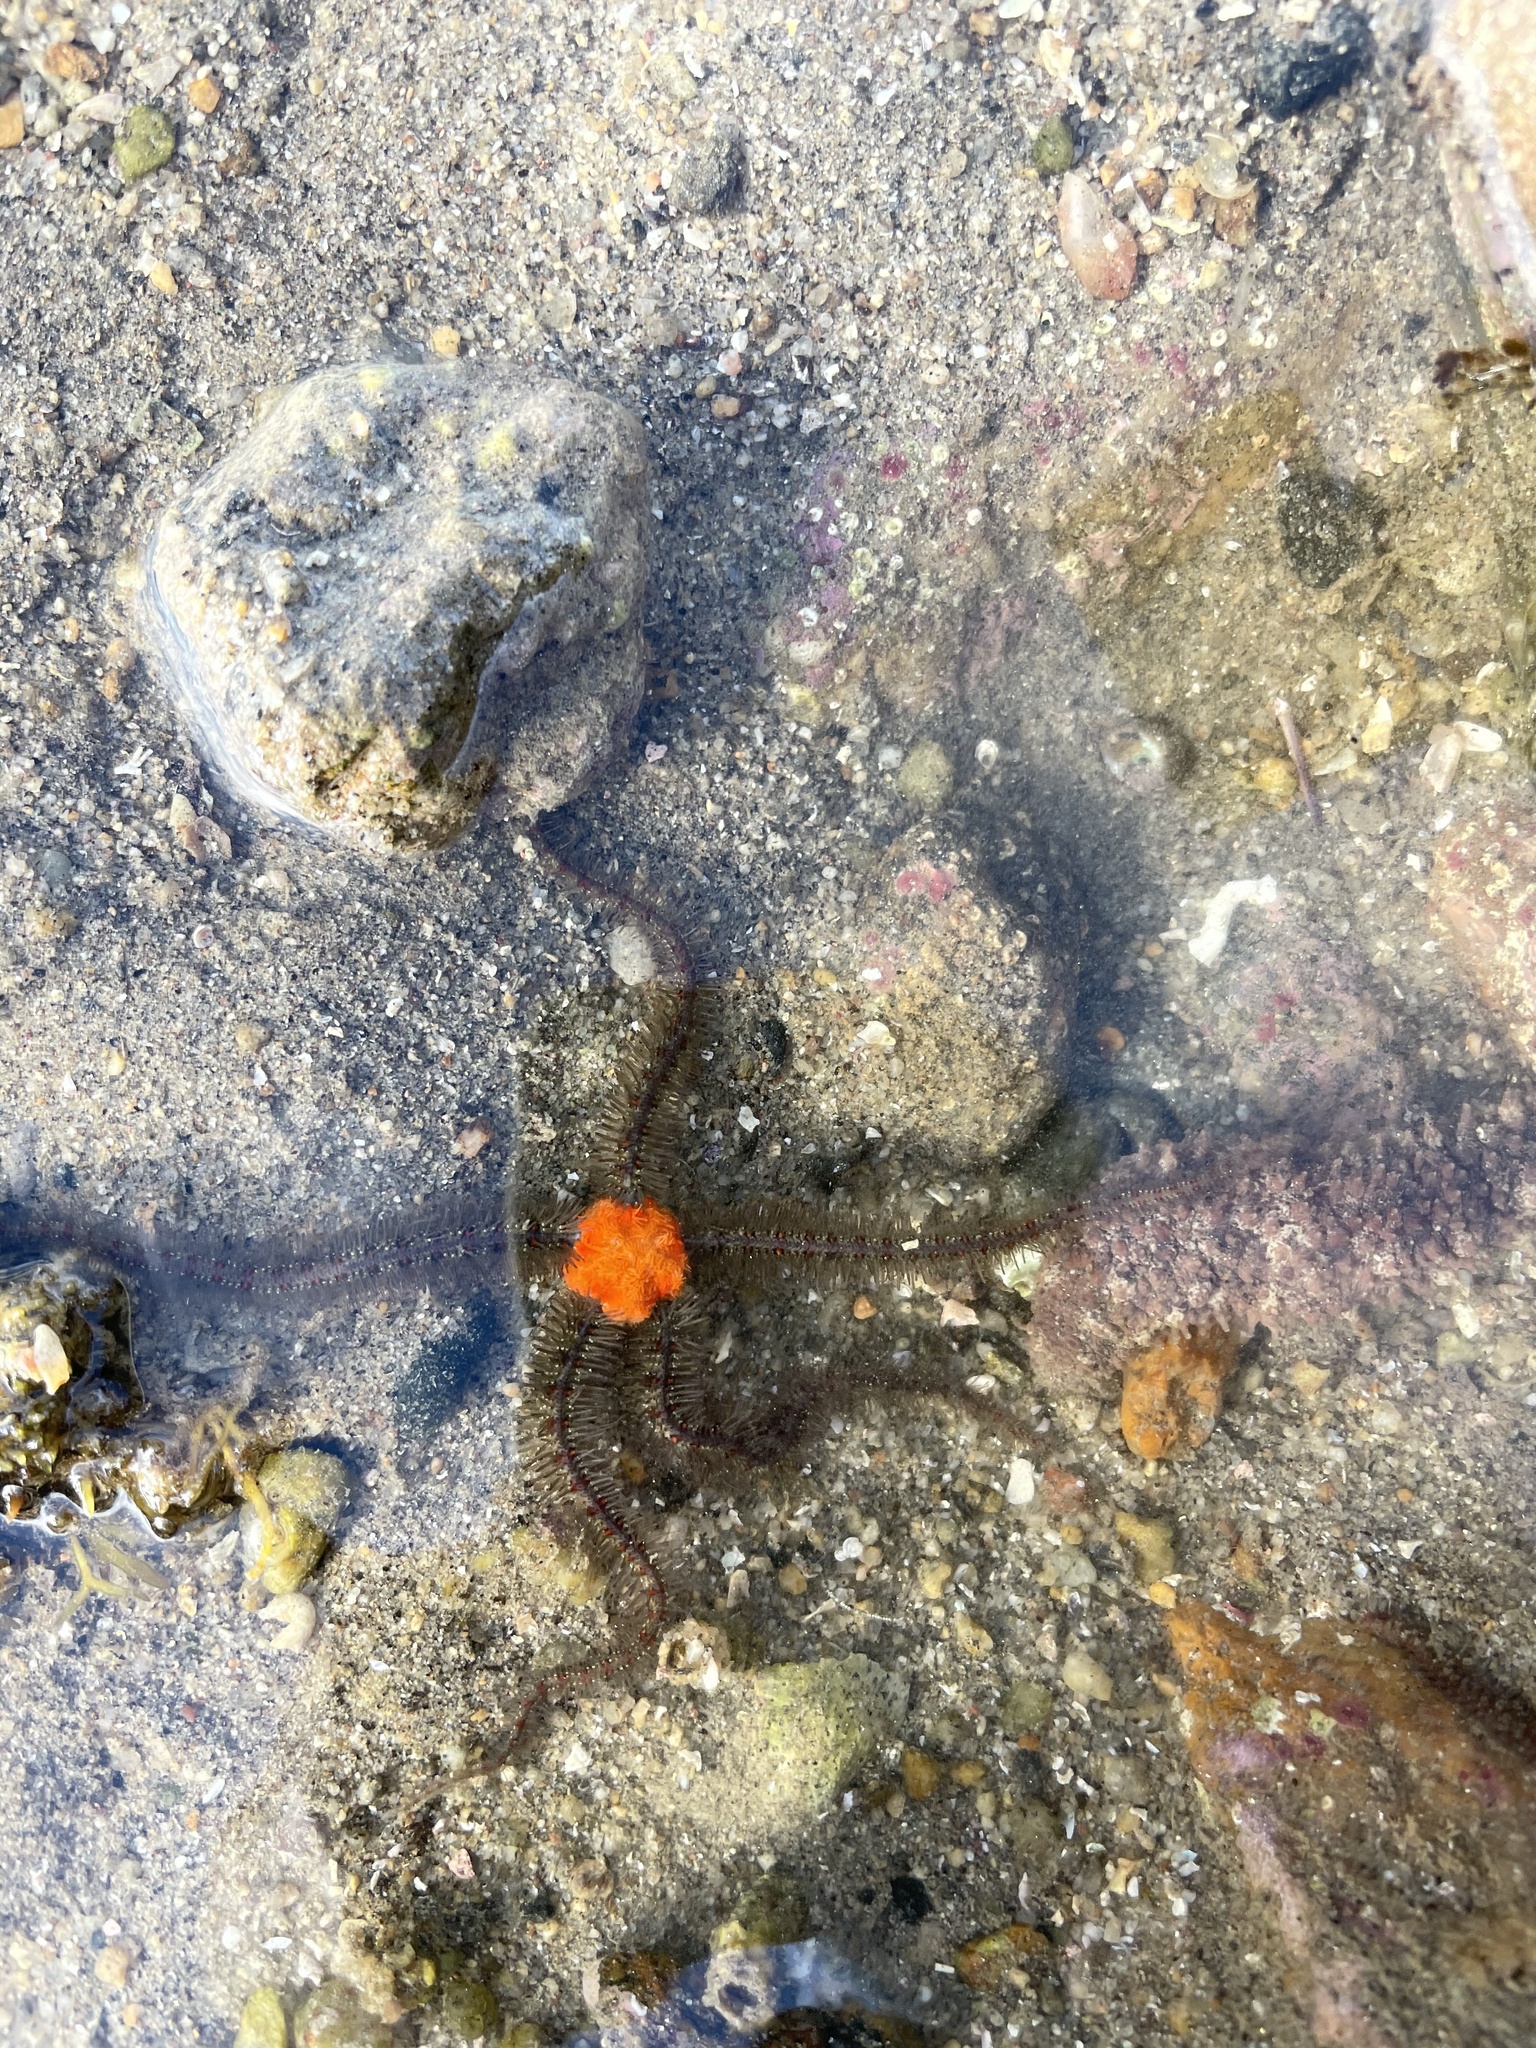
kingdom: Animalia
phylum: Echinodermata
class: Ophiuroidea
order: Amphilepidida
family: Ophiotrichidae
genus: Ophiothrix
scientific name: Ophiothrix spiculata
